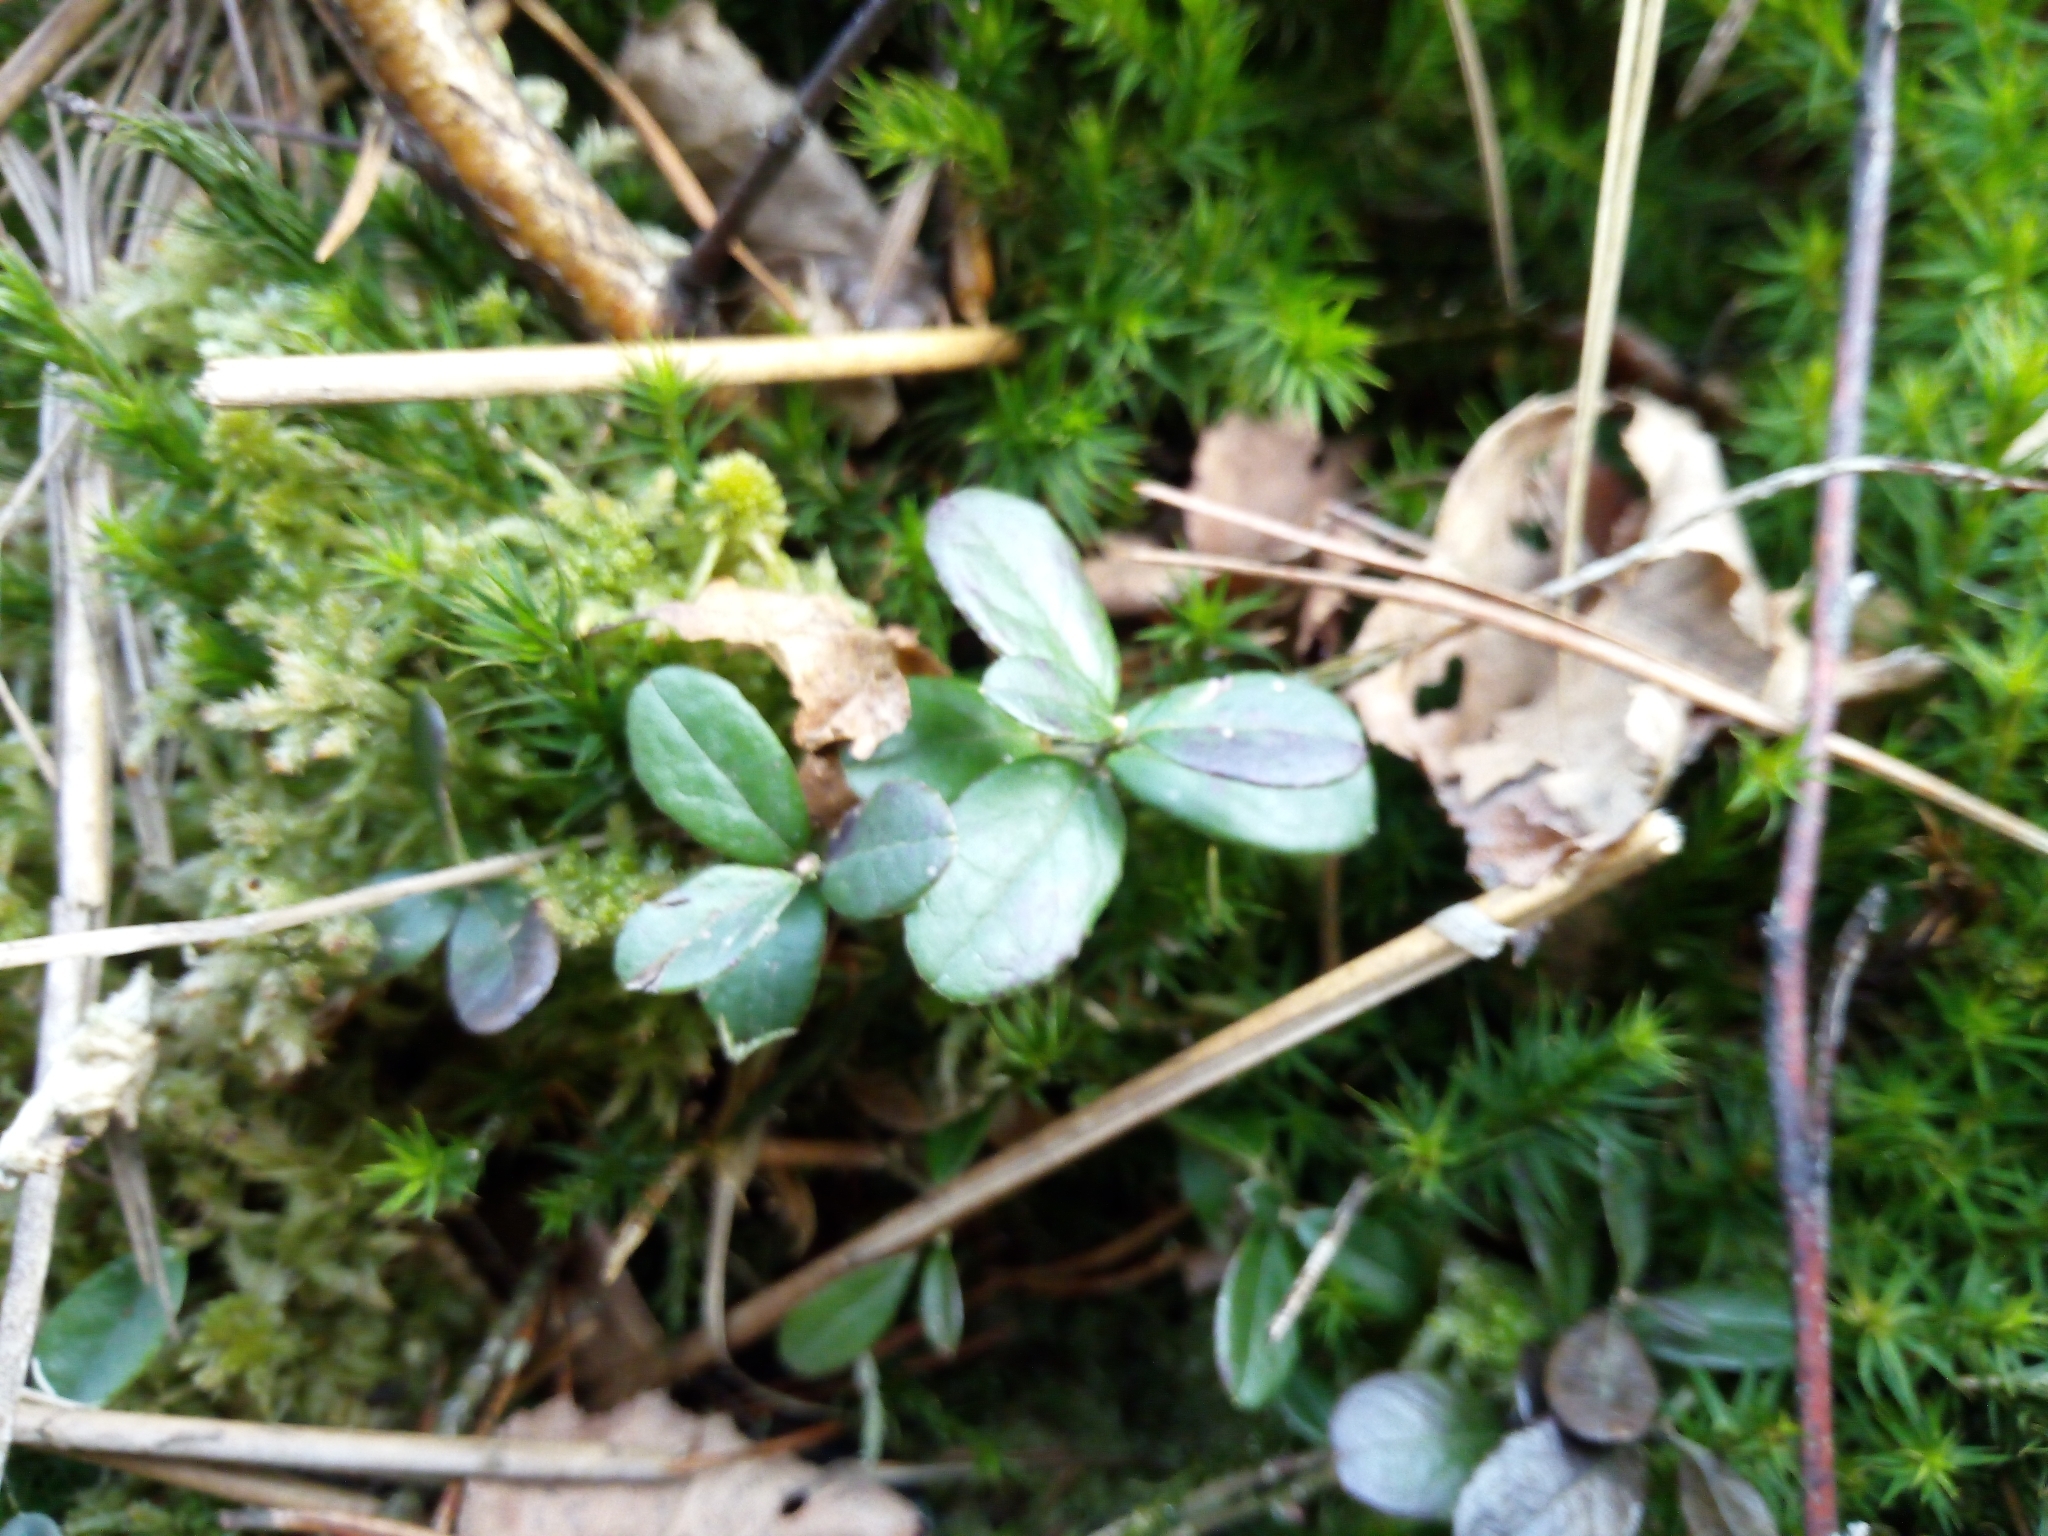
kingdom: Plantae
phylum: Tracheophyta
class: Magnoliopsida
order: Ericales
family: Ericaceae
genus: Vaccinium
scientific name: Vaccinium vitis-idaea
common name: Cowberry
